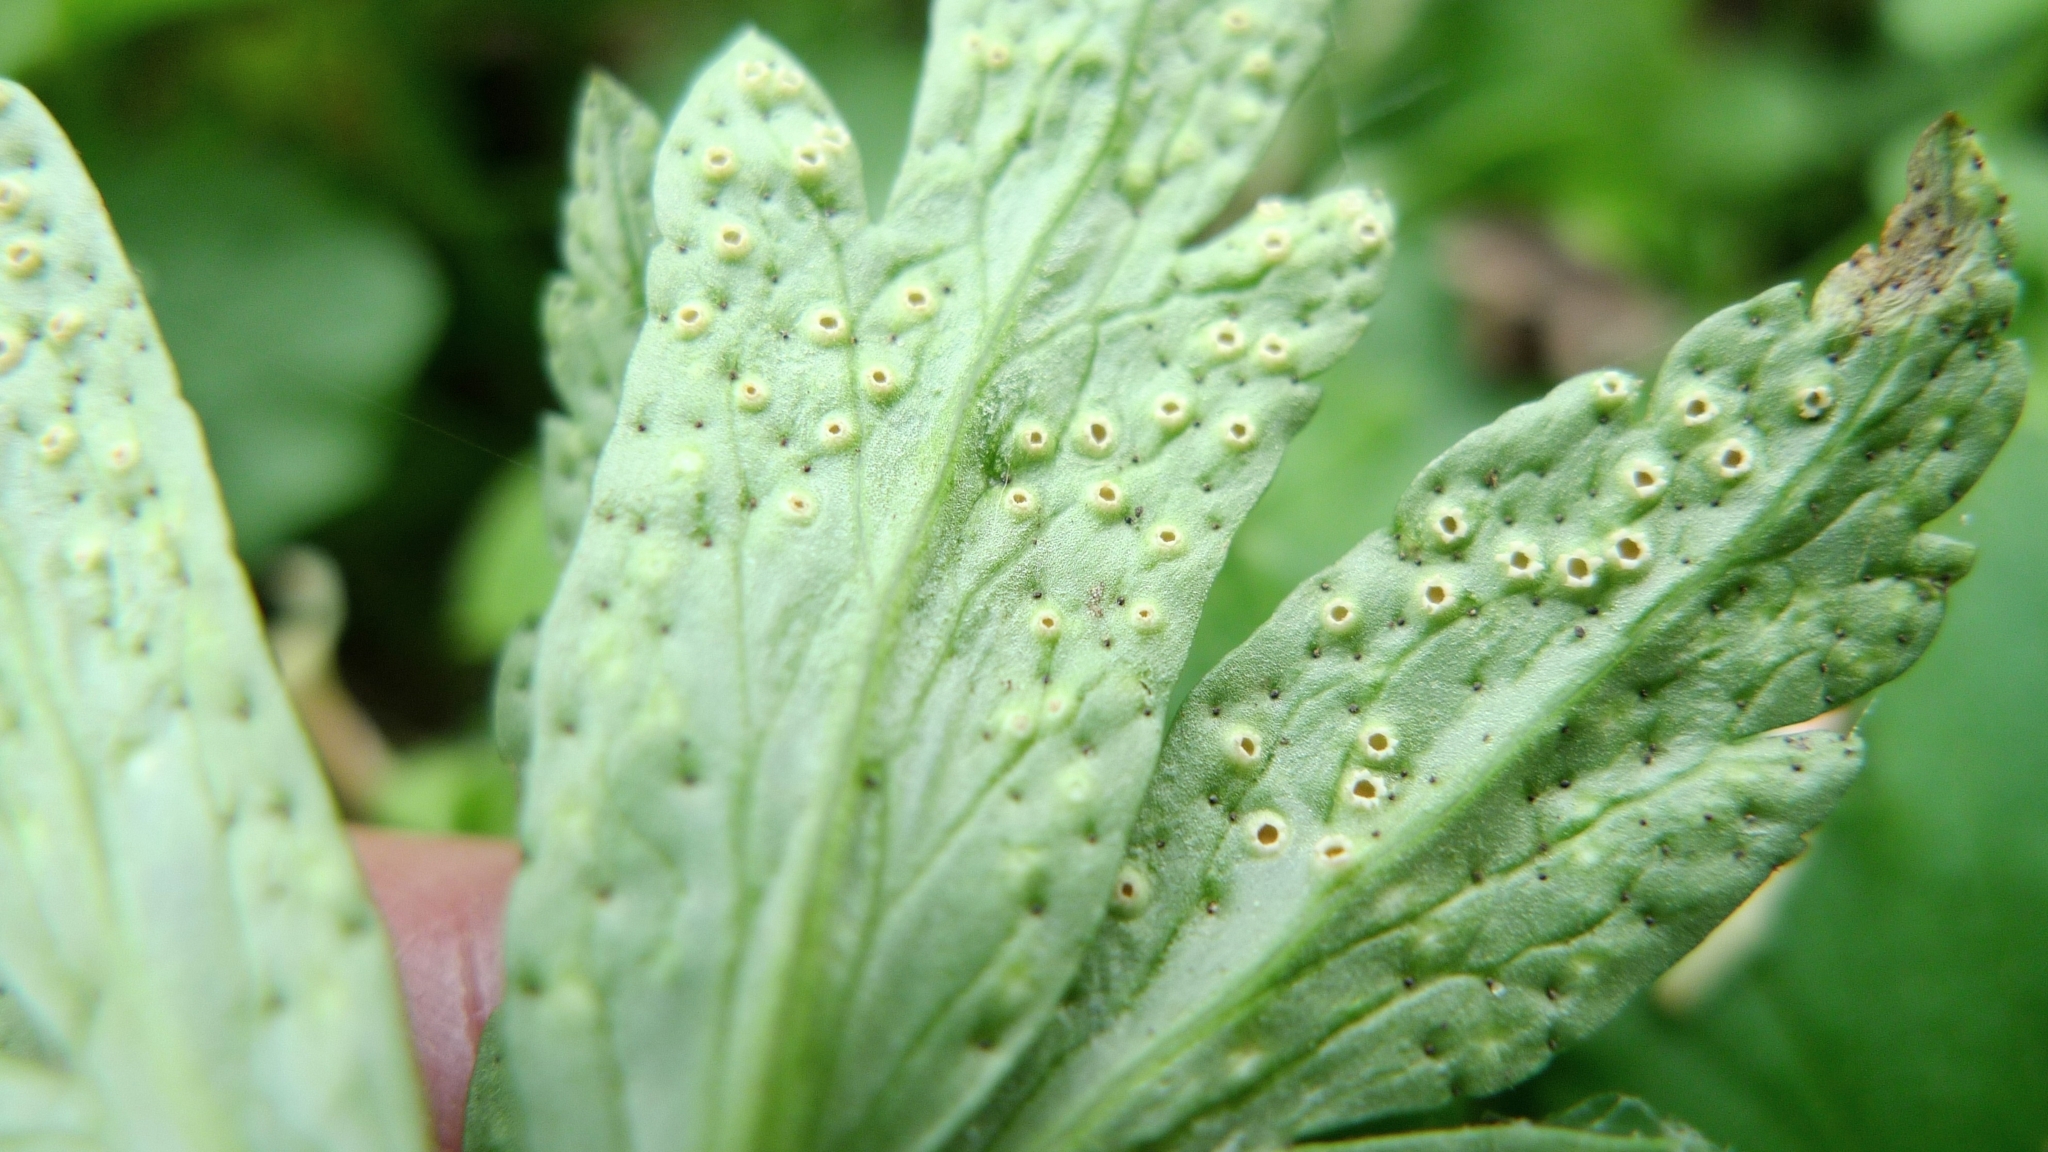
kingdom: Fungi
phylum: Basidiomycota
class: Pucciniomycetes
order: Pucciniales
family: Tranzscheliaceae
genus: Tranzschelia
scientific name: Tranzschelia pruni-spinosae
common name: Blackthorn rust
